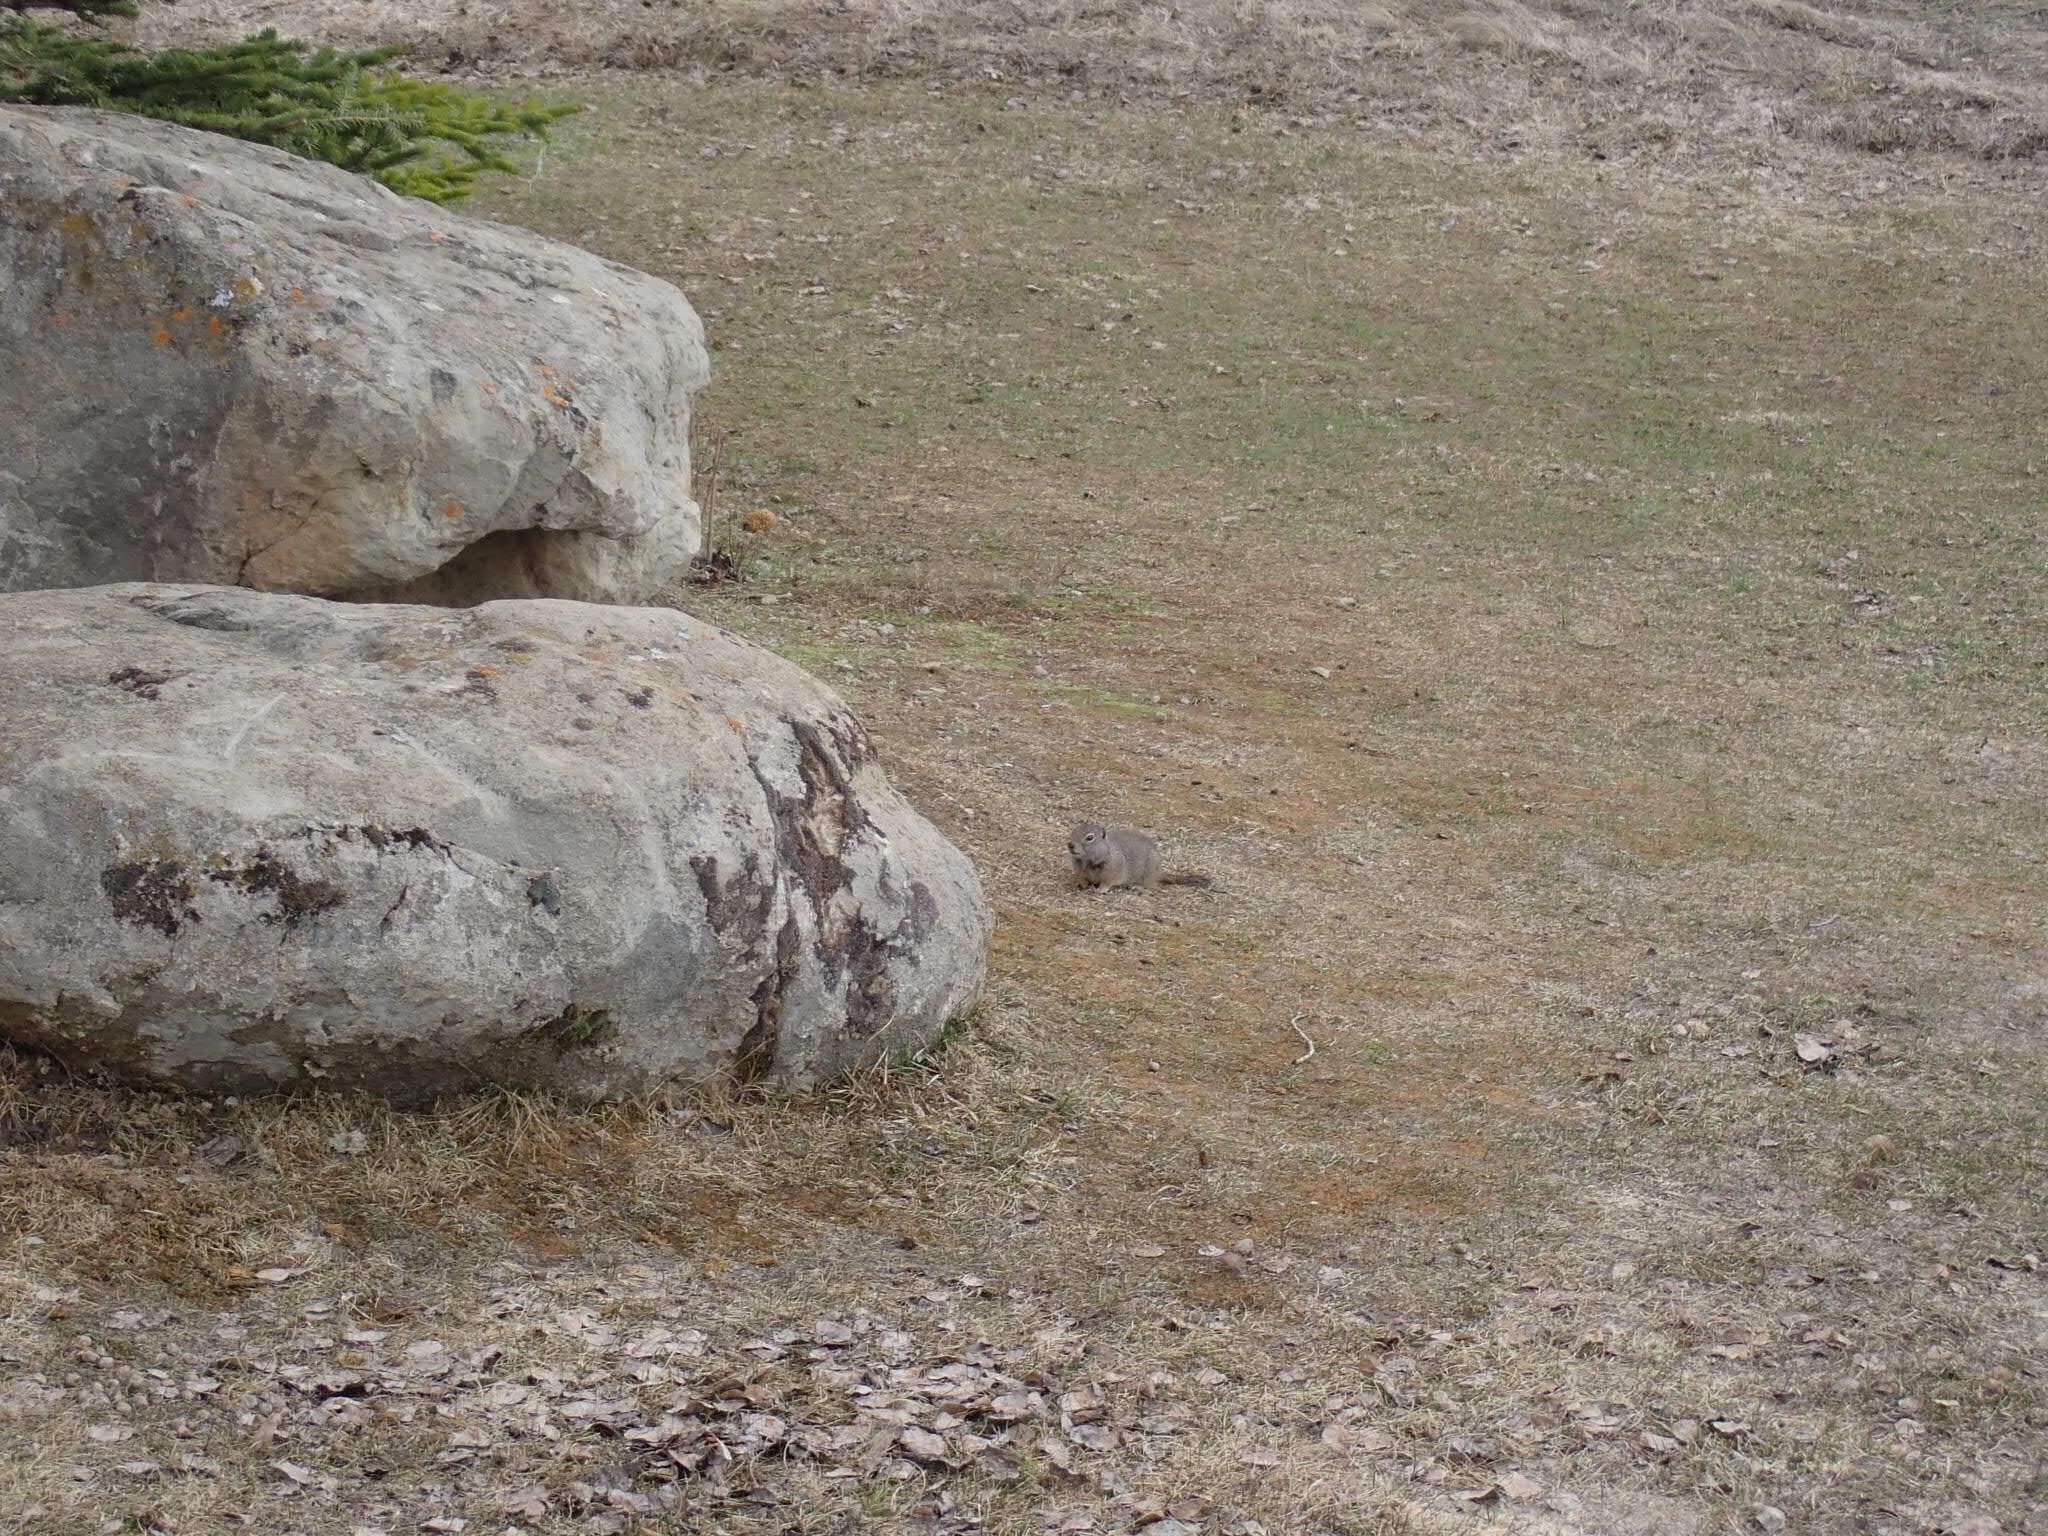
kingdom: Animalia
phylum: Chordata
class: Mammalia
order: Rodentia
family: Sciuridae
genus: Urocitellus
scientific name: Urocitellus armatus
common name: Uinta ground squirrel
